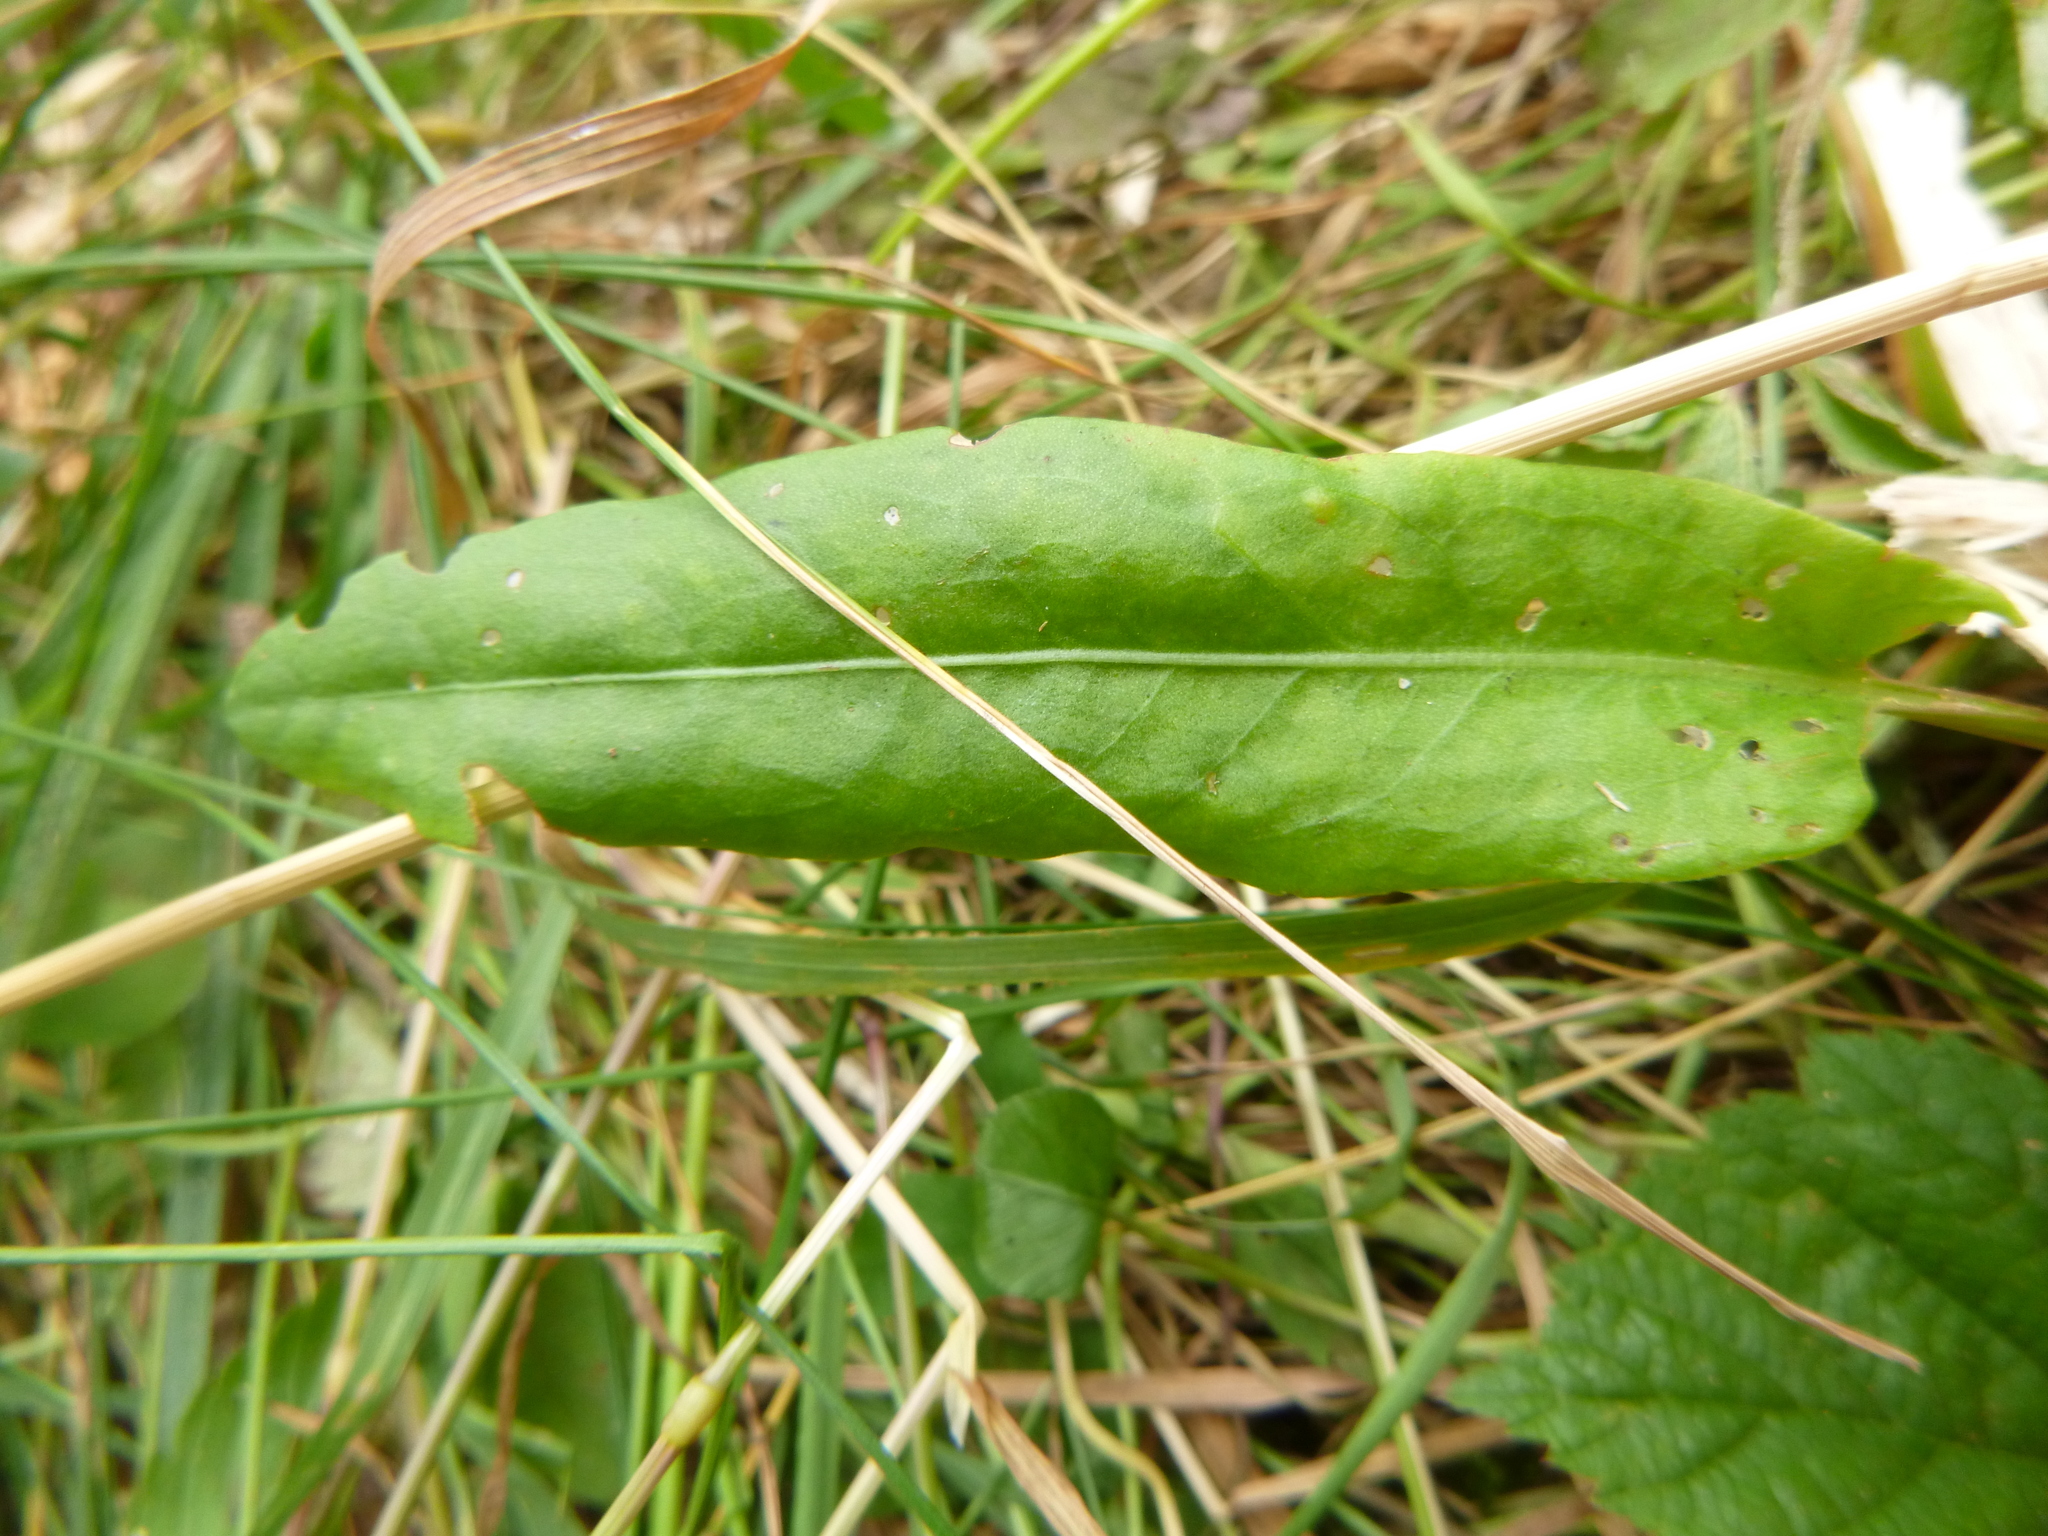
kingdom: Plantae
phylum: Tracheophyta
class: Magnoliopsida
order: Caryophyllales
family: Polygonaceae
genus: Rumex
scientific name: Rumex acetosa
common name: Garden sorrel
